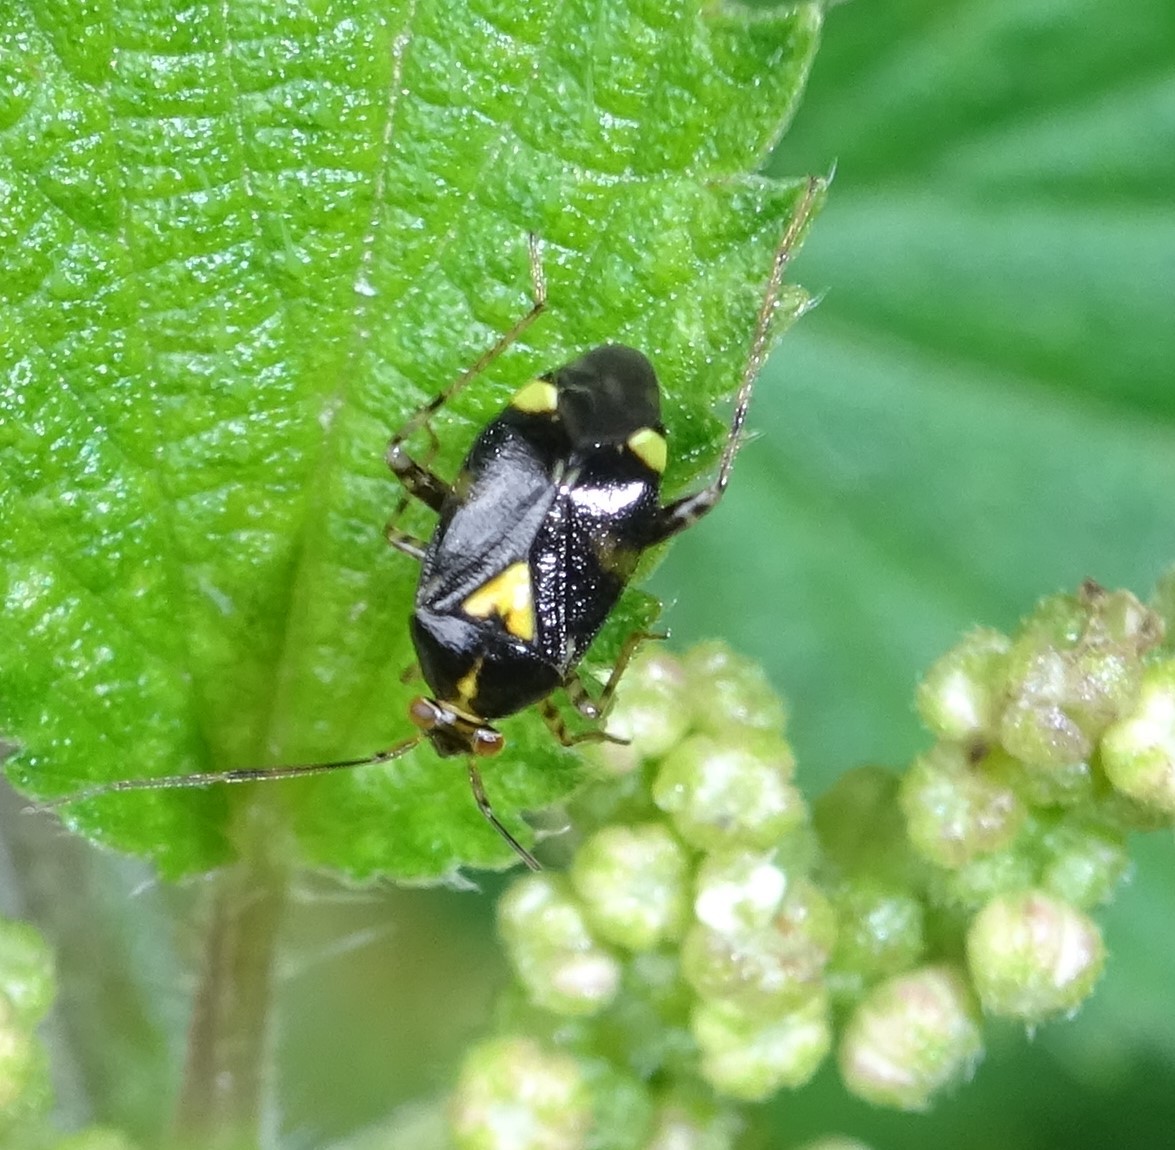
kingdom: Animalia
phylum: Arthropoda
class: Insecta
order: Hemiptera
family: Miridae
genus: Liocoris
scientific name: Liocoris tripustulatus
